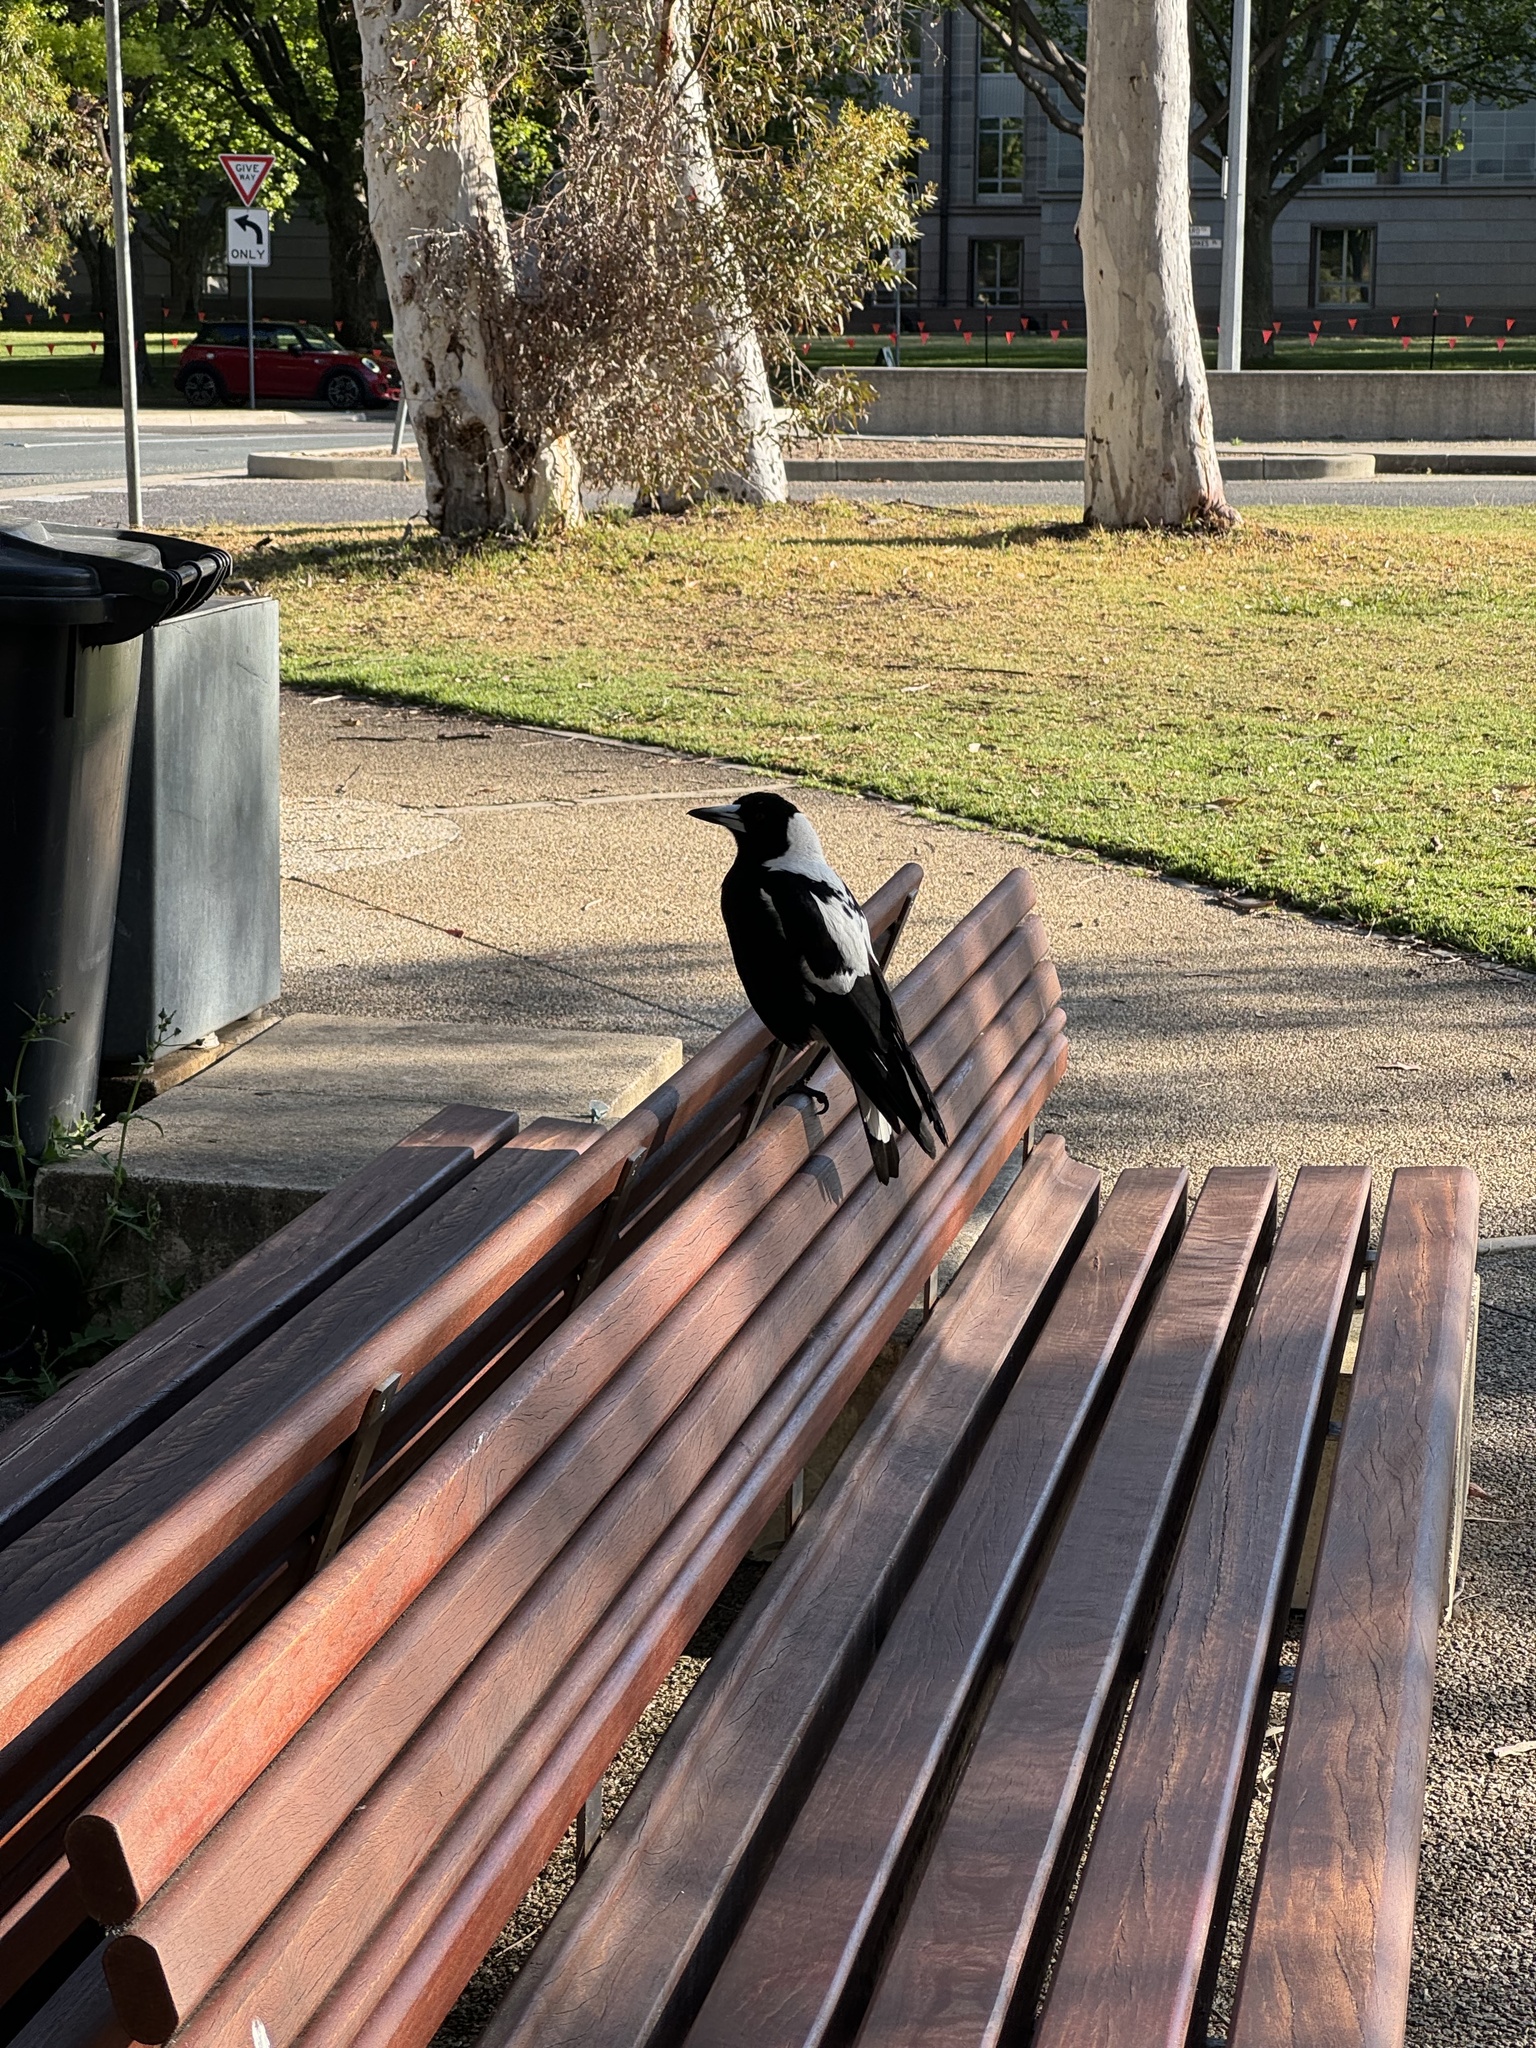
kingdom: Animalia
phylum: Chordata
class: Aves
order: Passeriformes
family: Cracticidae
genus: Gymnorhina
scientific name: Gymnorhina tibicen
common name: Australian magpie
